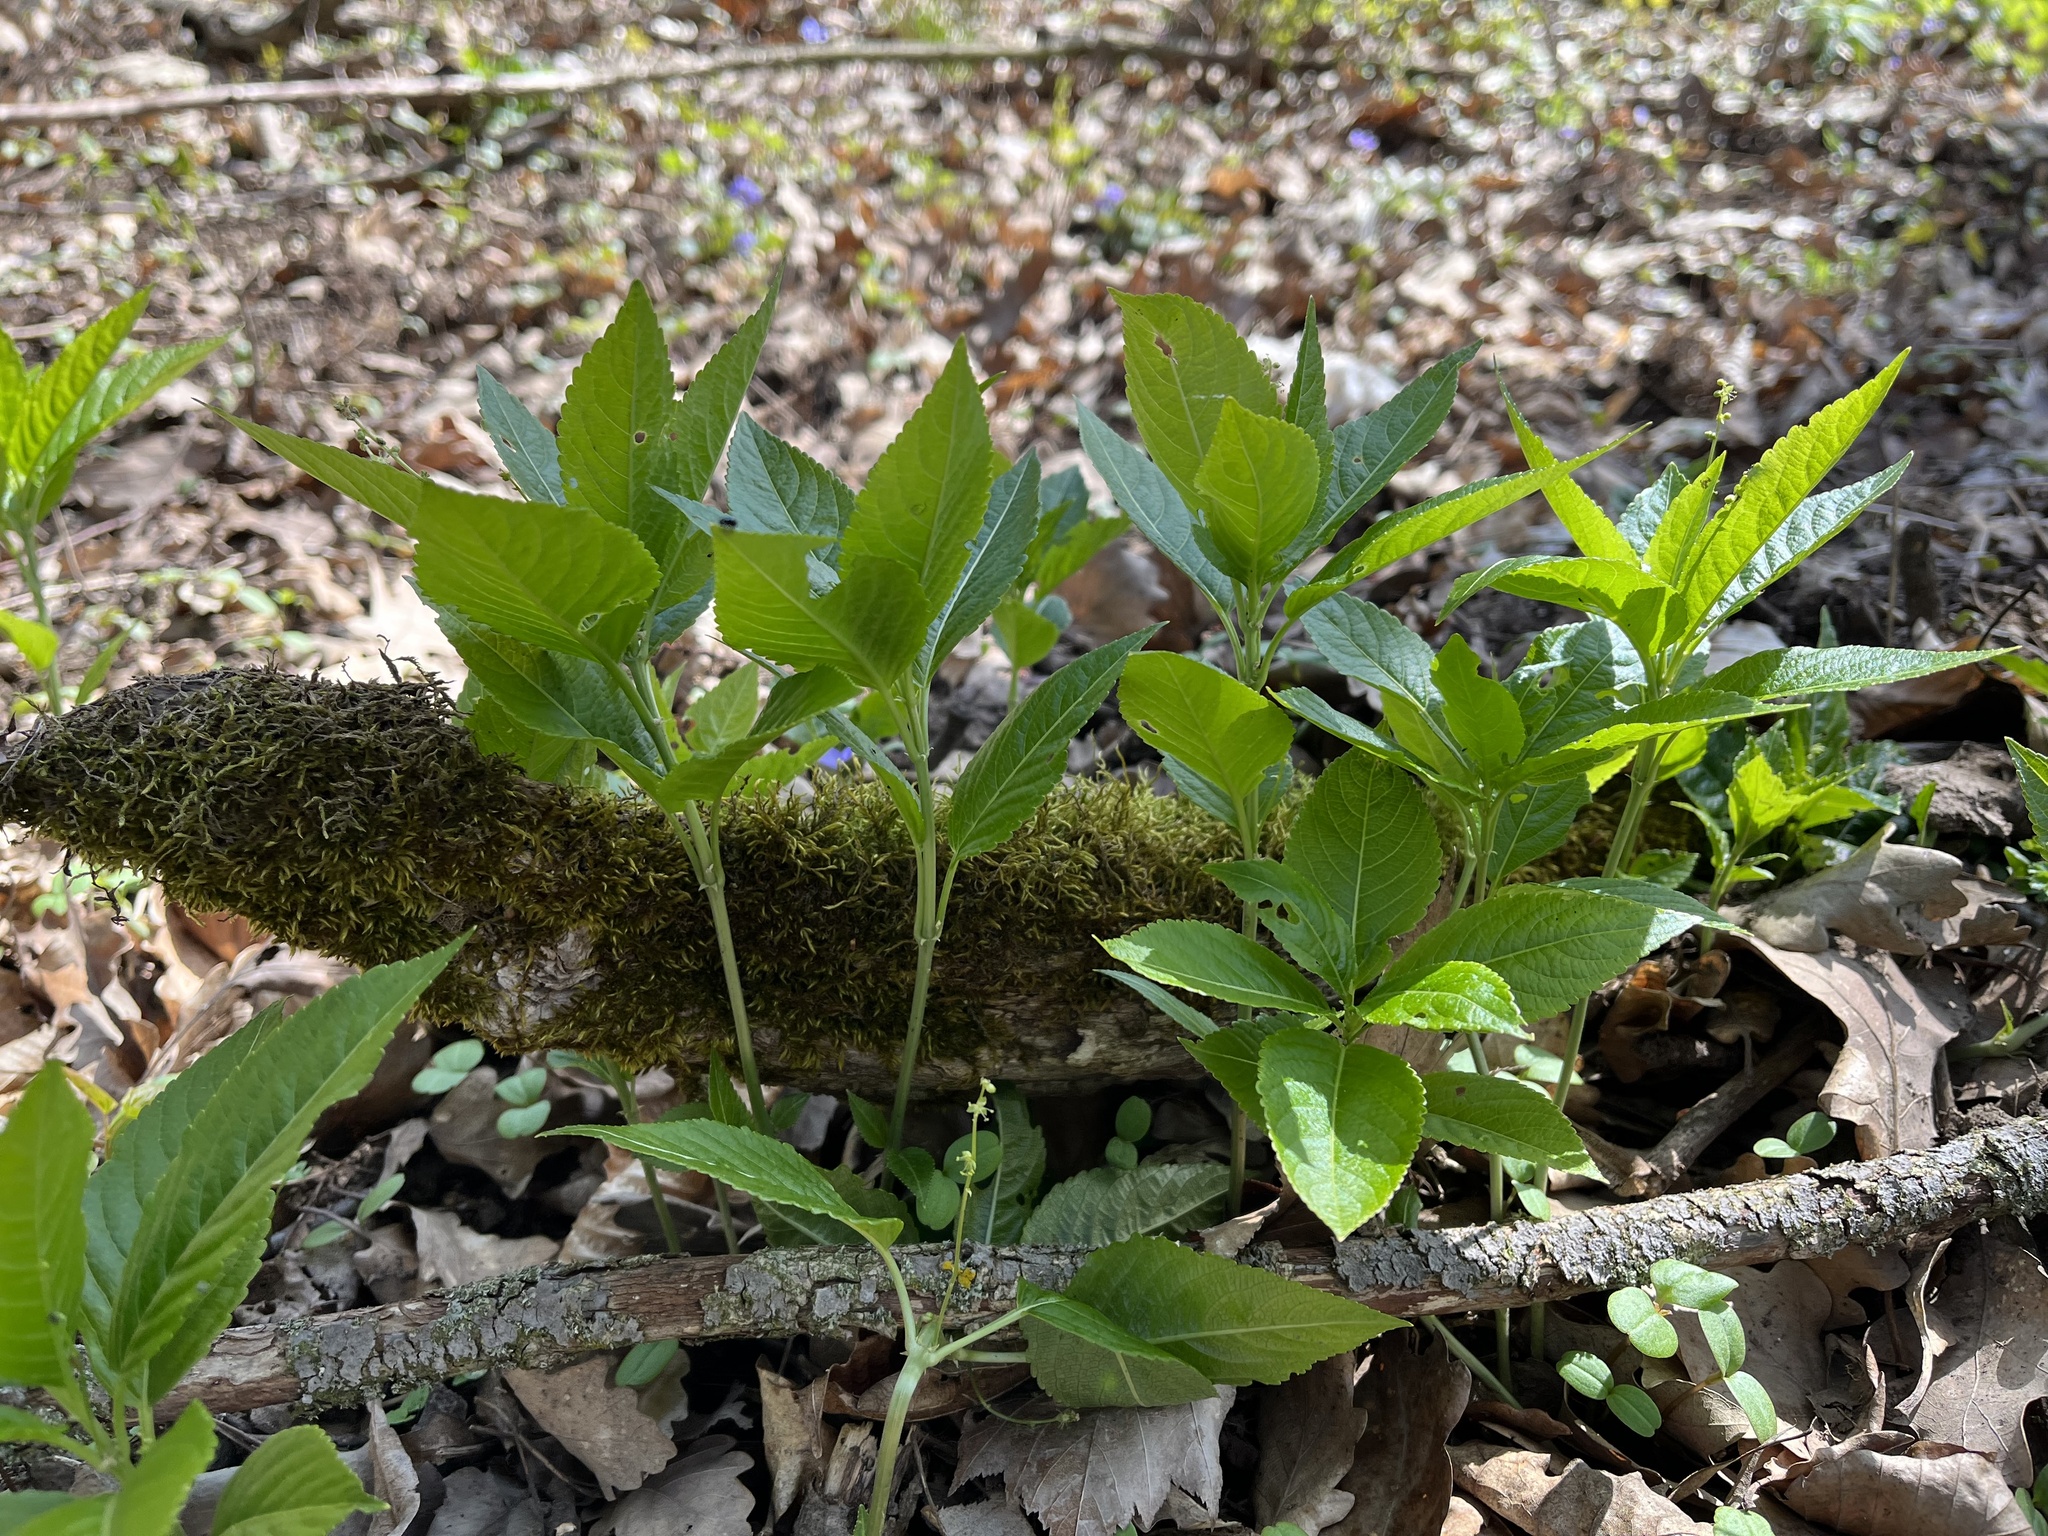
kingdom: Plantae
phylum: Tracheophyta
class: Magnoliopsida
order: Malpighiales
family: Euphorbiaceae
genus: Mercurialis
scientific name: Mercurialis perennis
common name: Dog mercury
